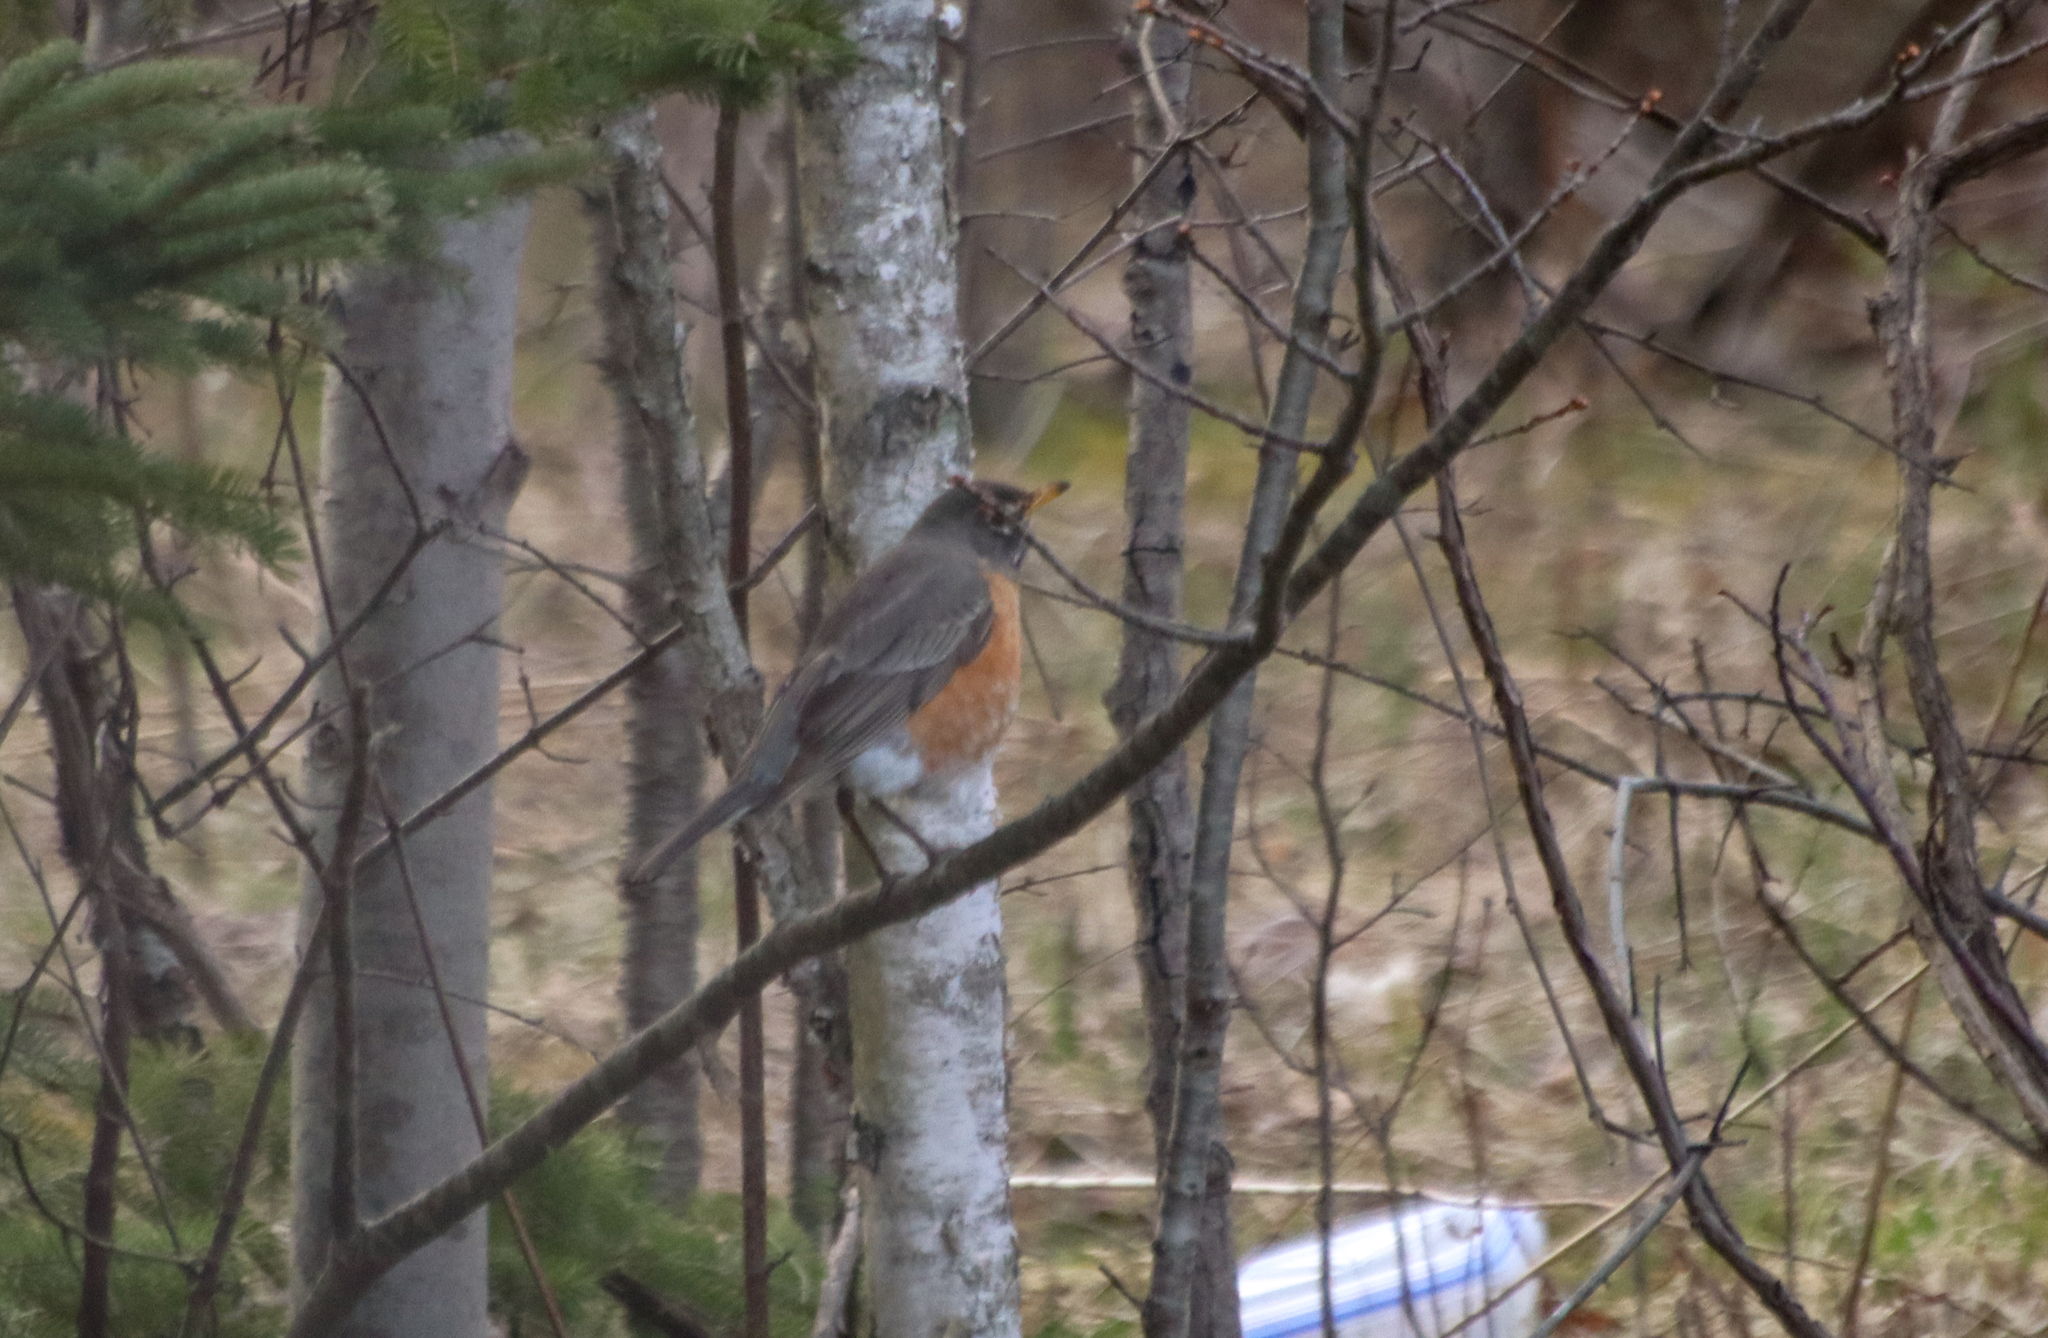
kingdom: Animalia
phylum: Chordata
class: Aves
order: Passeriformes
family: Turdidae
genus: Turdus
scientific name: Turdus migratorius
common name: American robin
